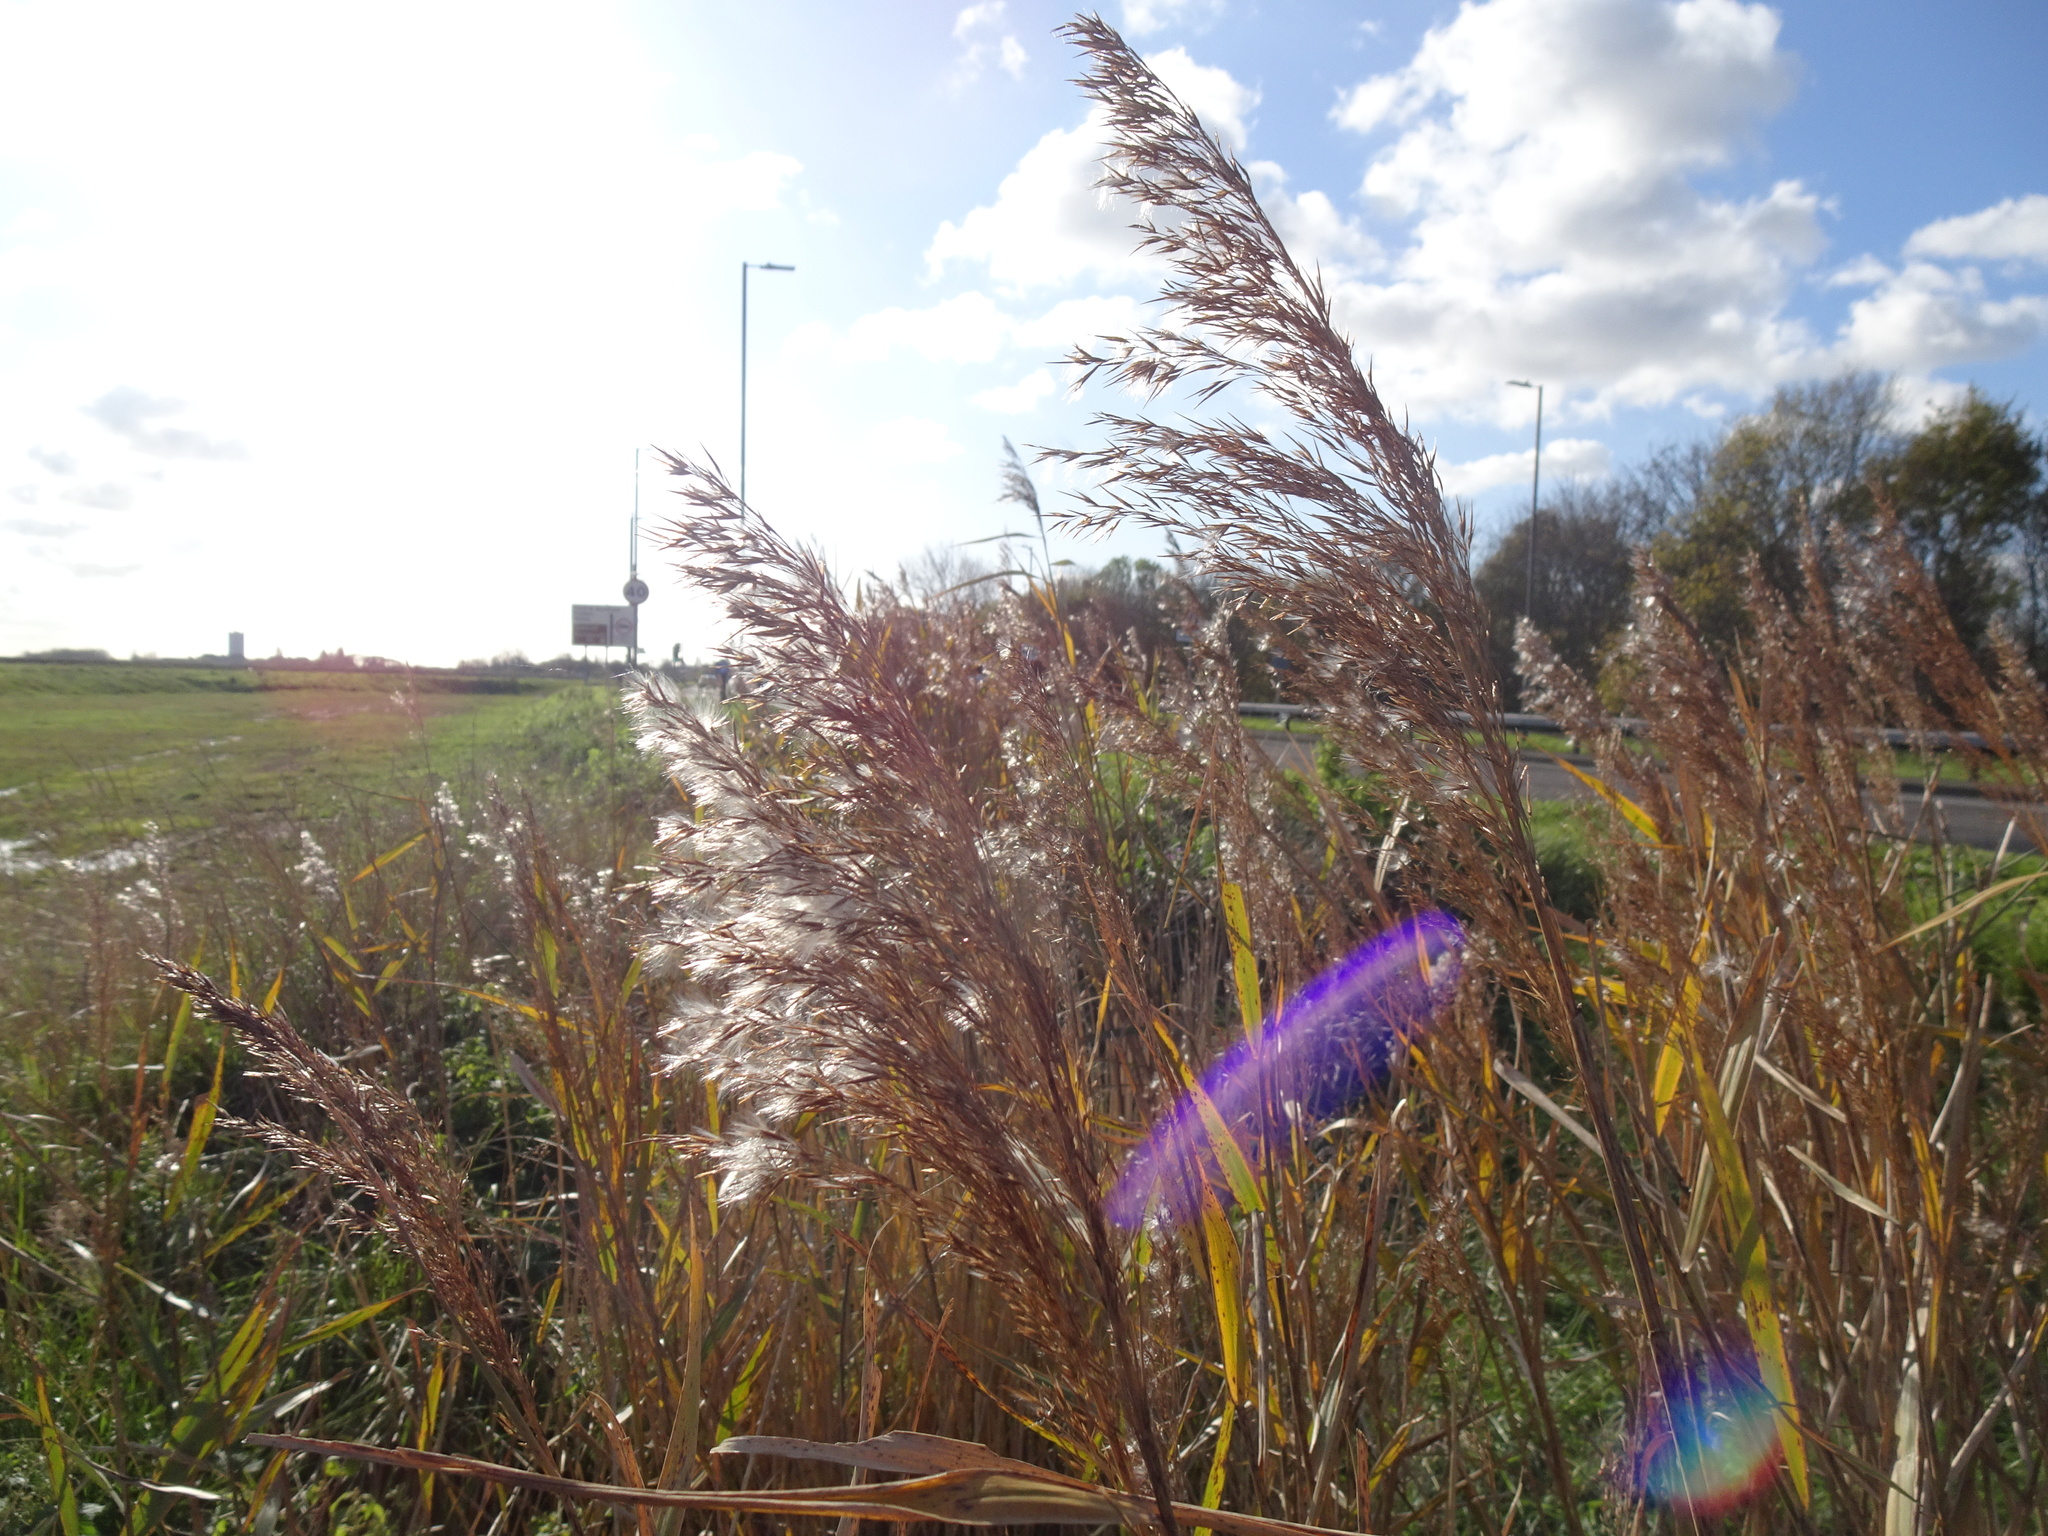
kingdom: Plantae
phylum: Tracheophyta
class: Liliopsida
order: Poales
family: Poaceae
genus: Phragmites
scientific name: Phragmites australis
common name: Common reed
